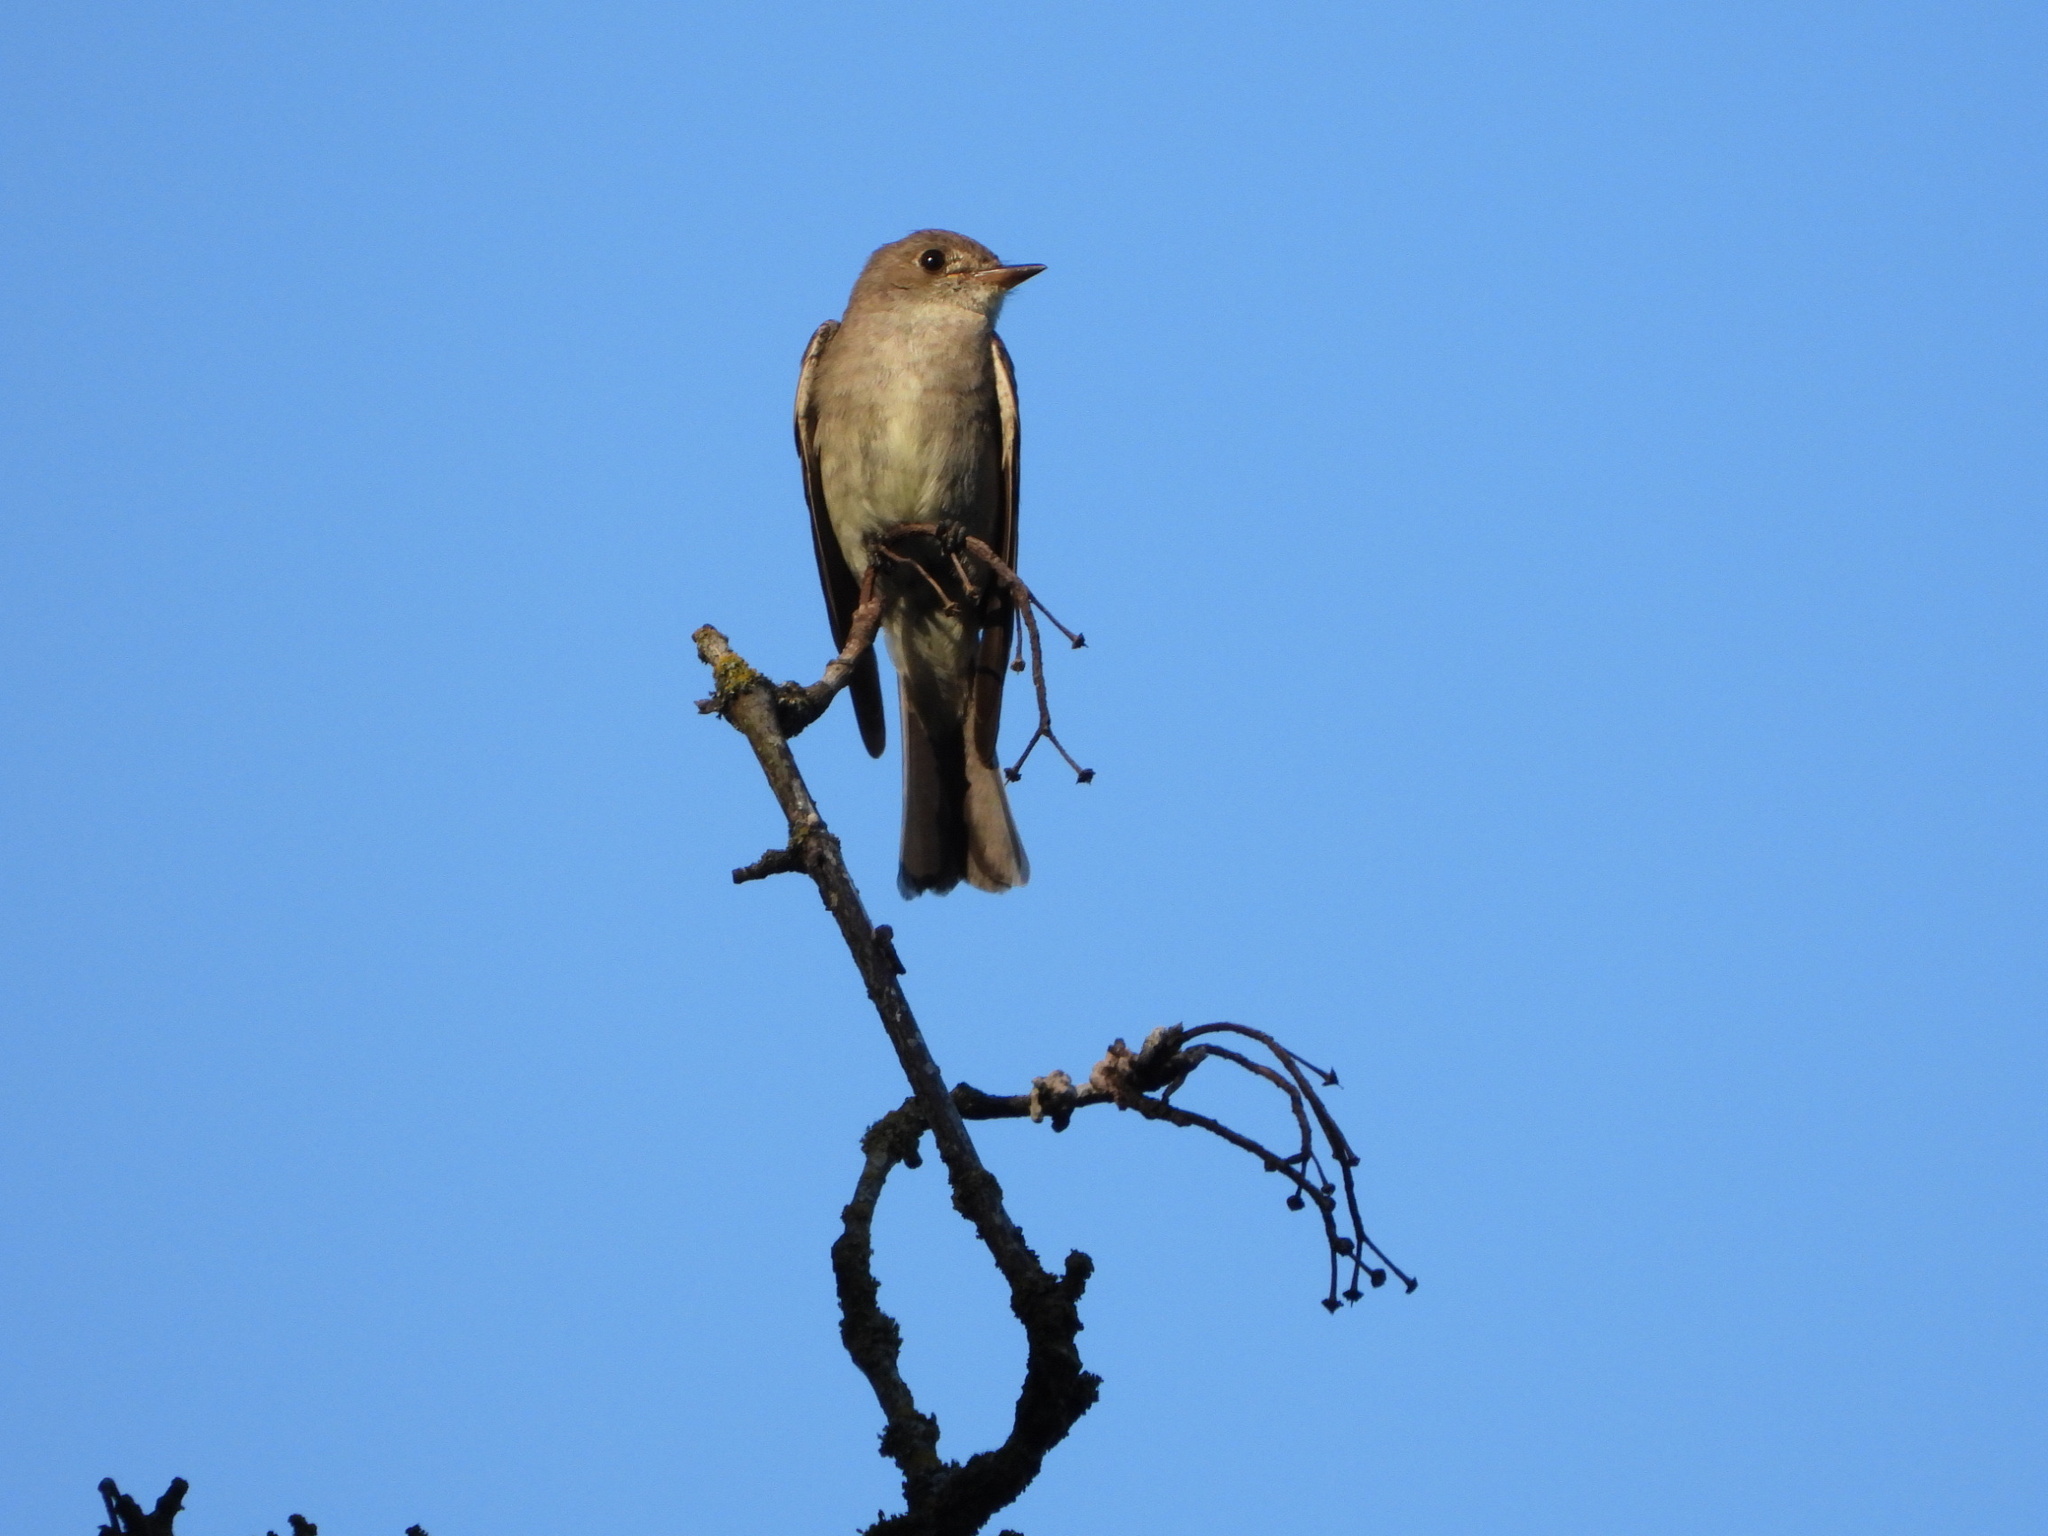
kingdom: Animalia
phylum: Chordata
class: Aves
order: Passeriformes
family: Tyrannidae
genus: Contopus
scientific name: Contopus sordidulus
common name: Western wood-pewee
